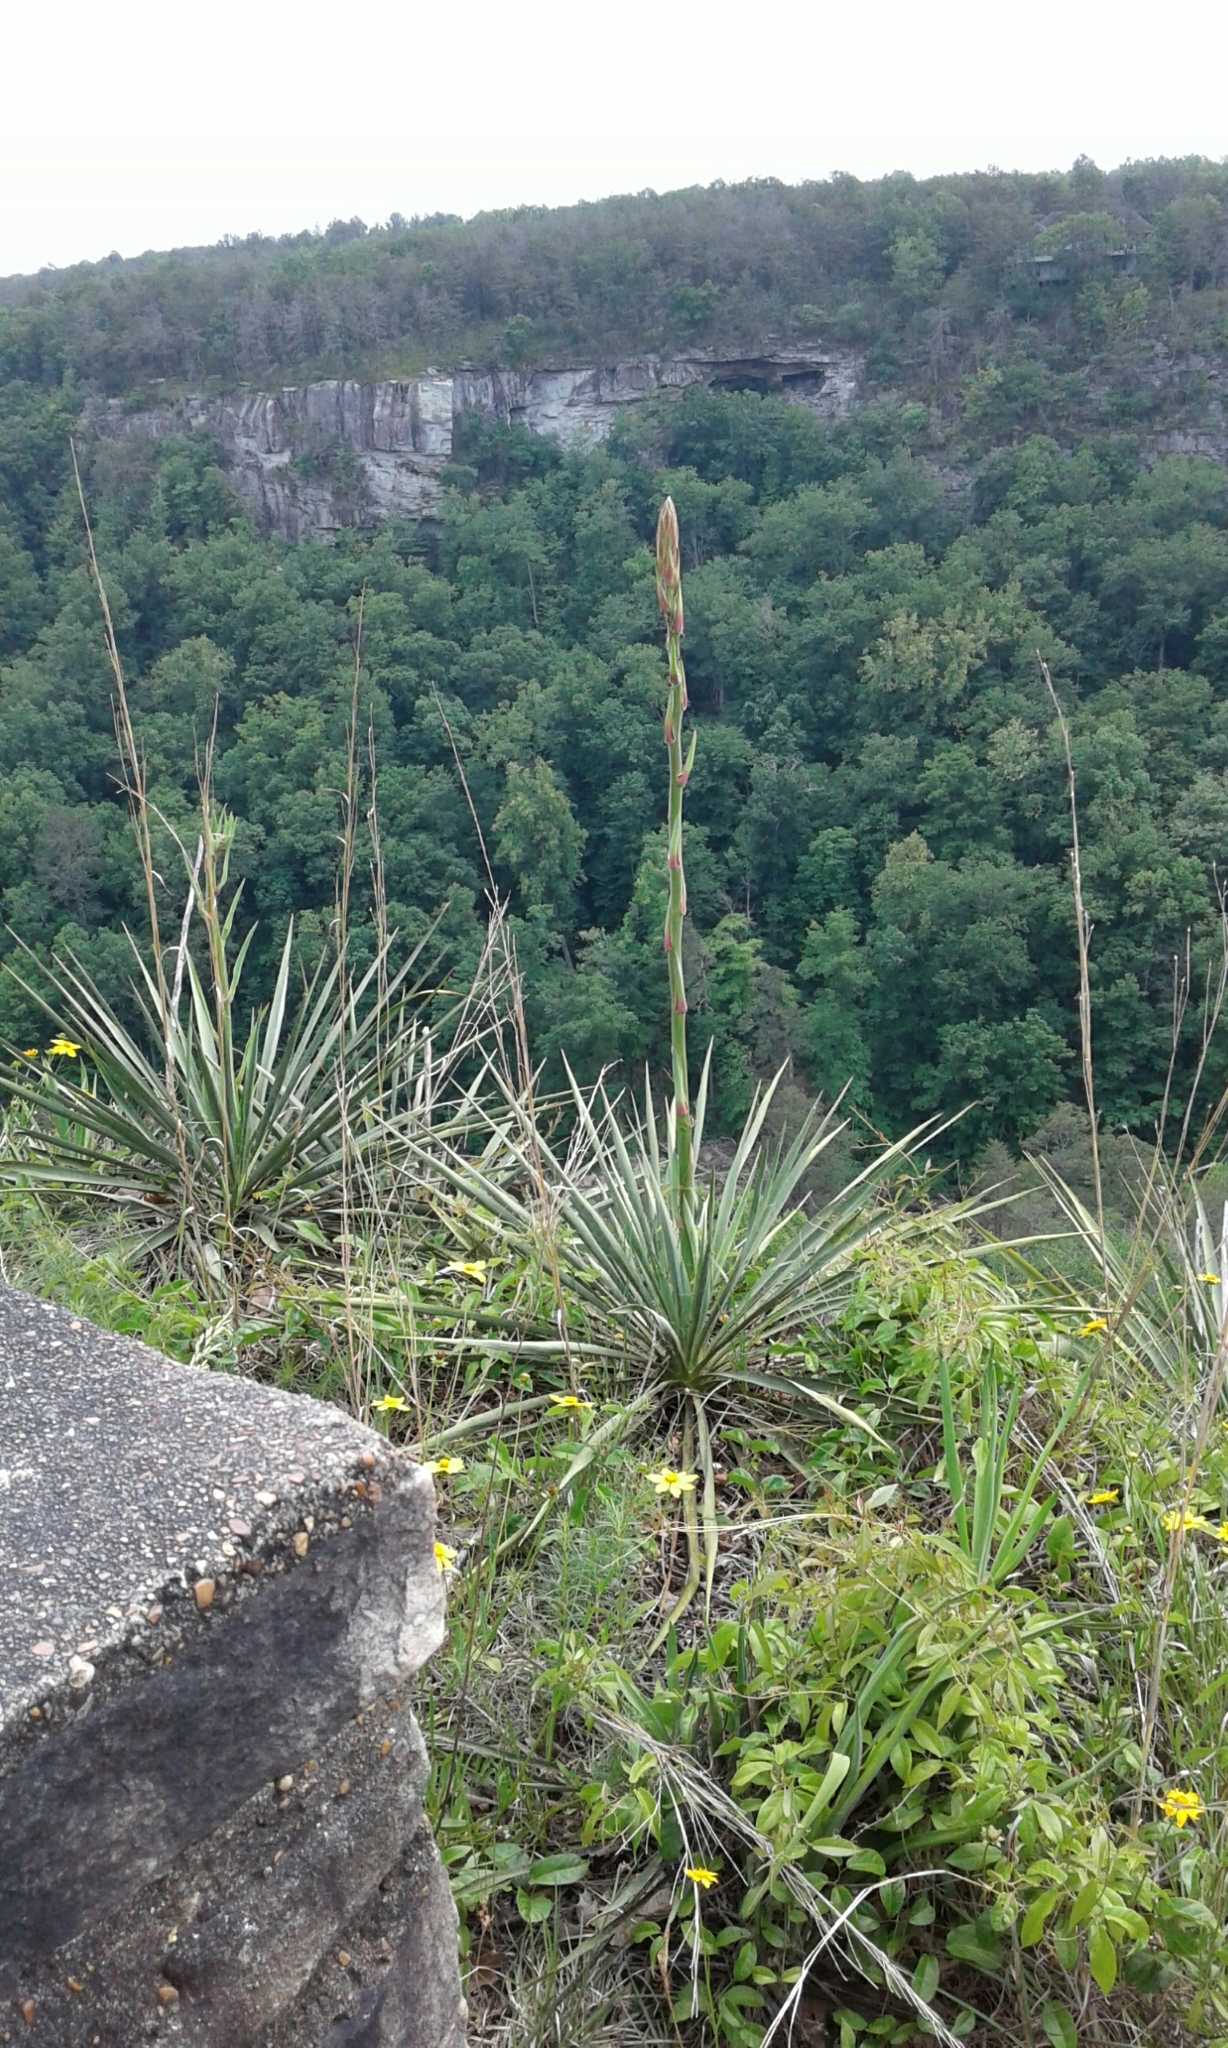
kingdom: Plantae
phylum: Tracheophyta
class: Liliopsida
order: Asparagales
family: Asparagaceae
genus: Yucca
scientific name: Yucca filamentosa
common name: Adam's-needle
